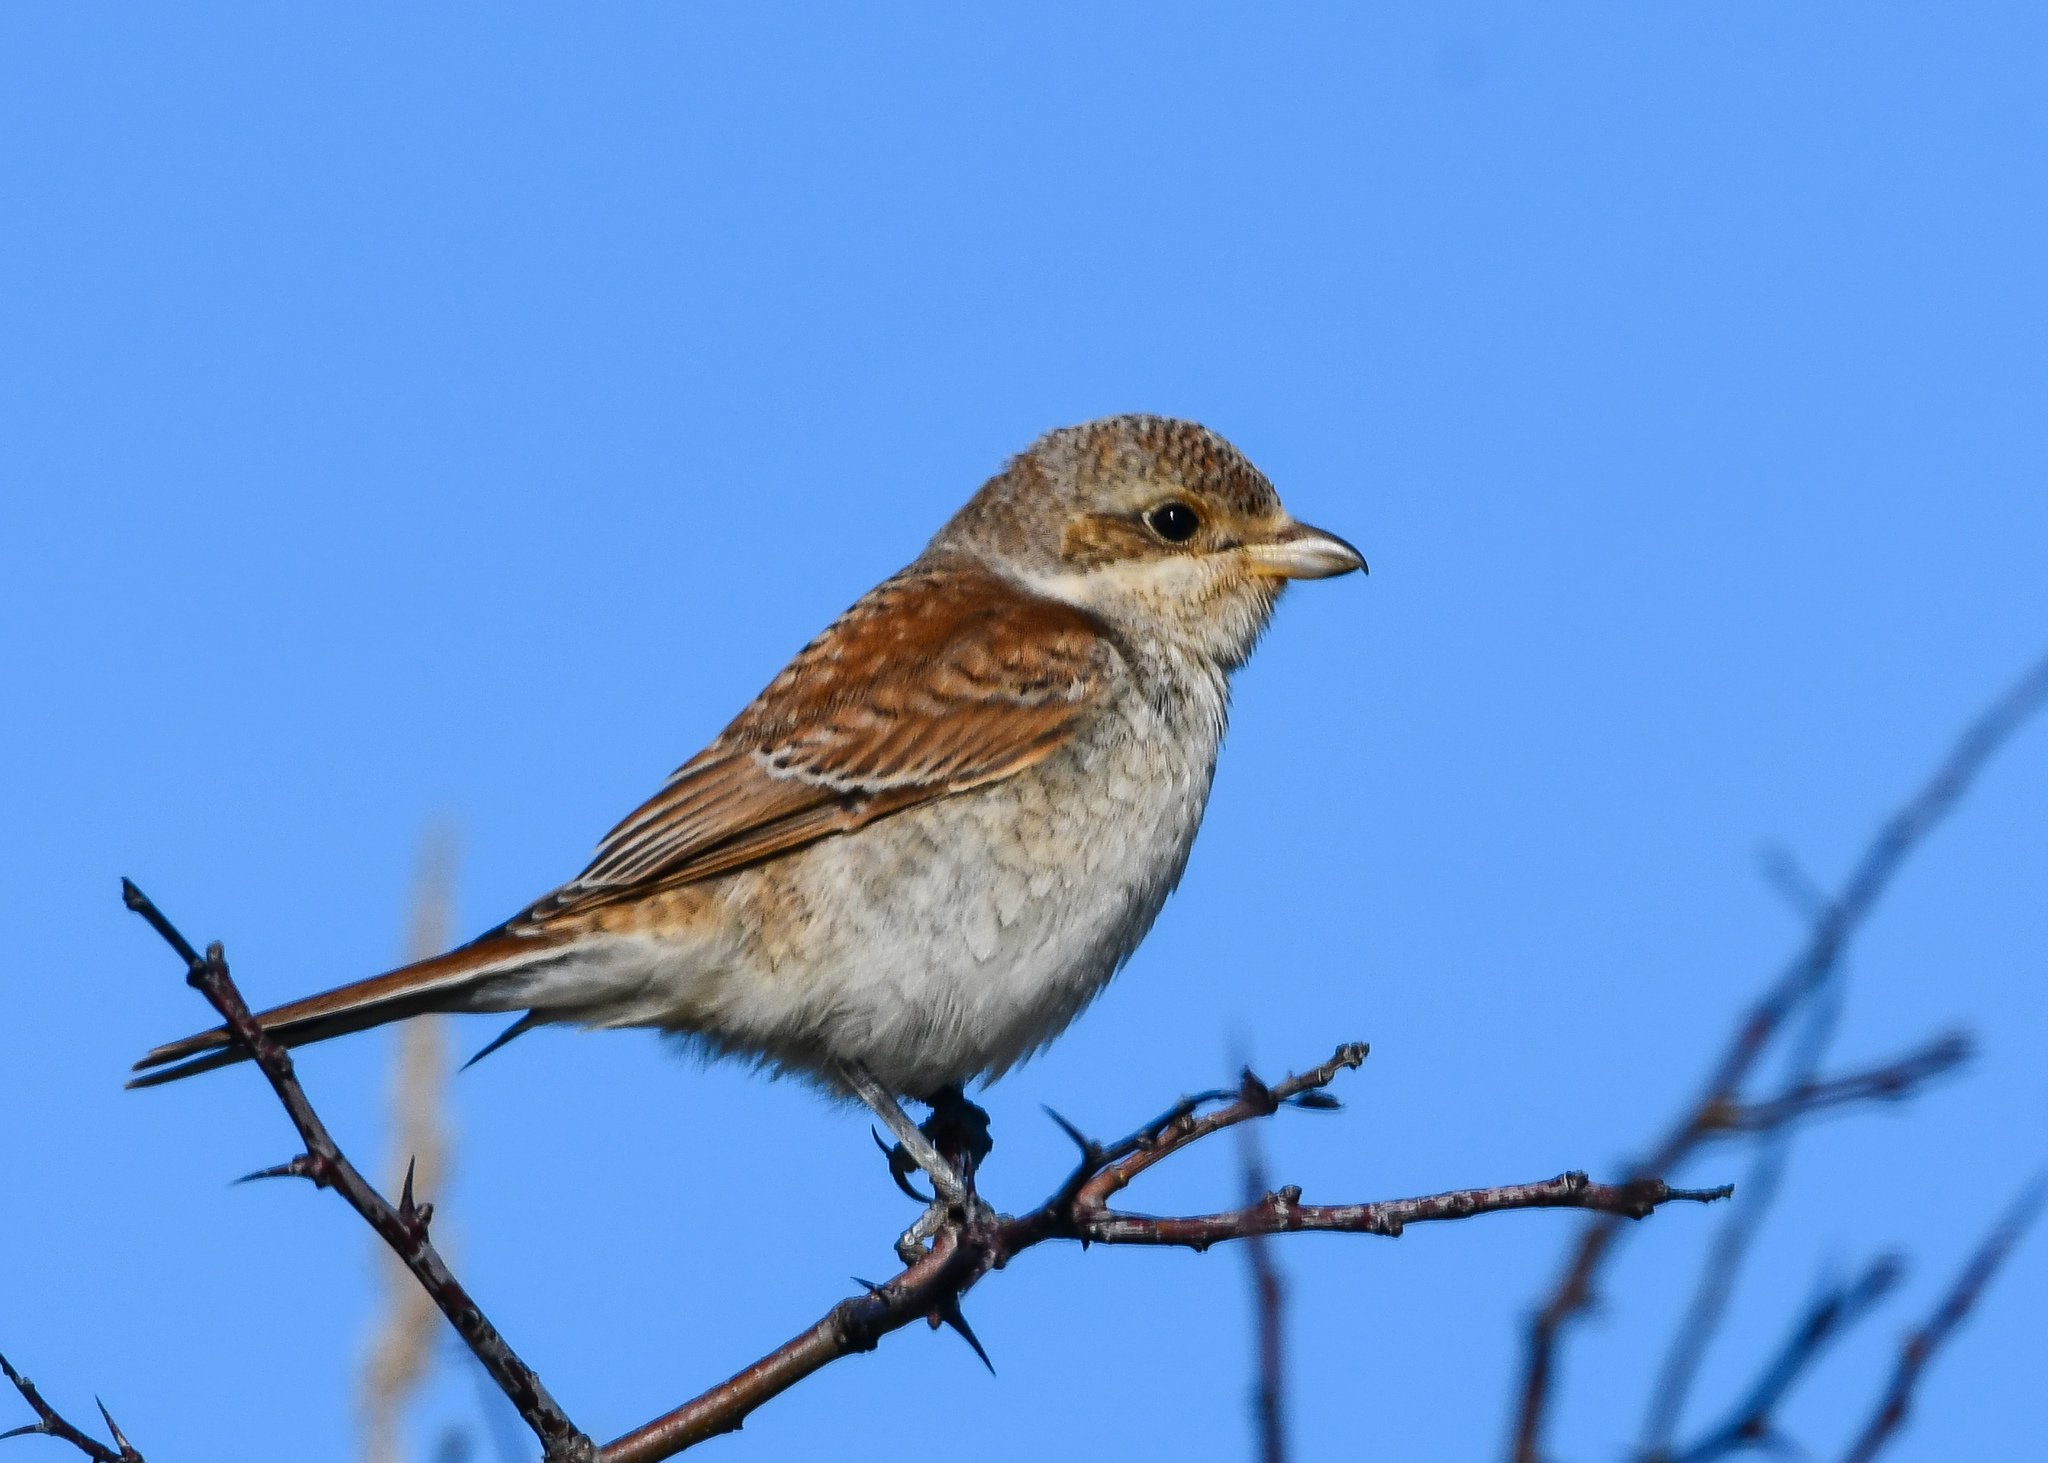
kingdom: Animalia
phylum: Chordata
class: Aves
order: Passeriformes
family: Laniidae
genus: Lanius
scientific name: Lanius collurio
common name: Red-backed shrike
